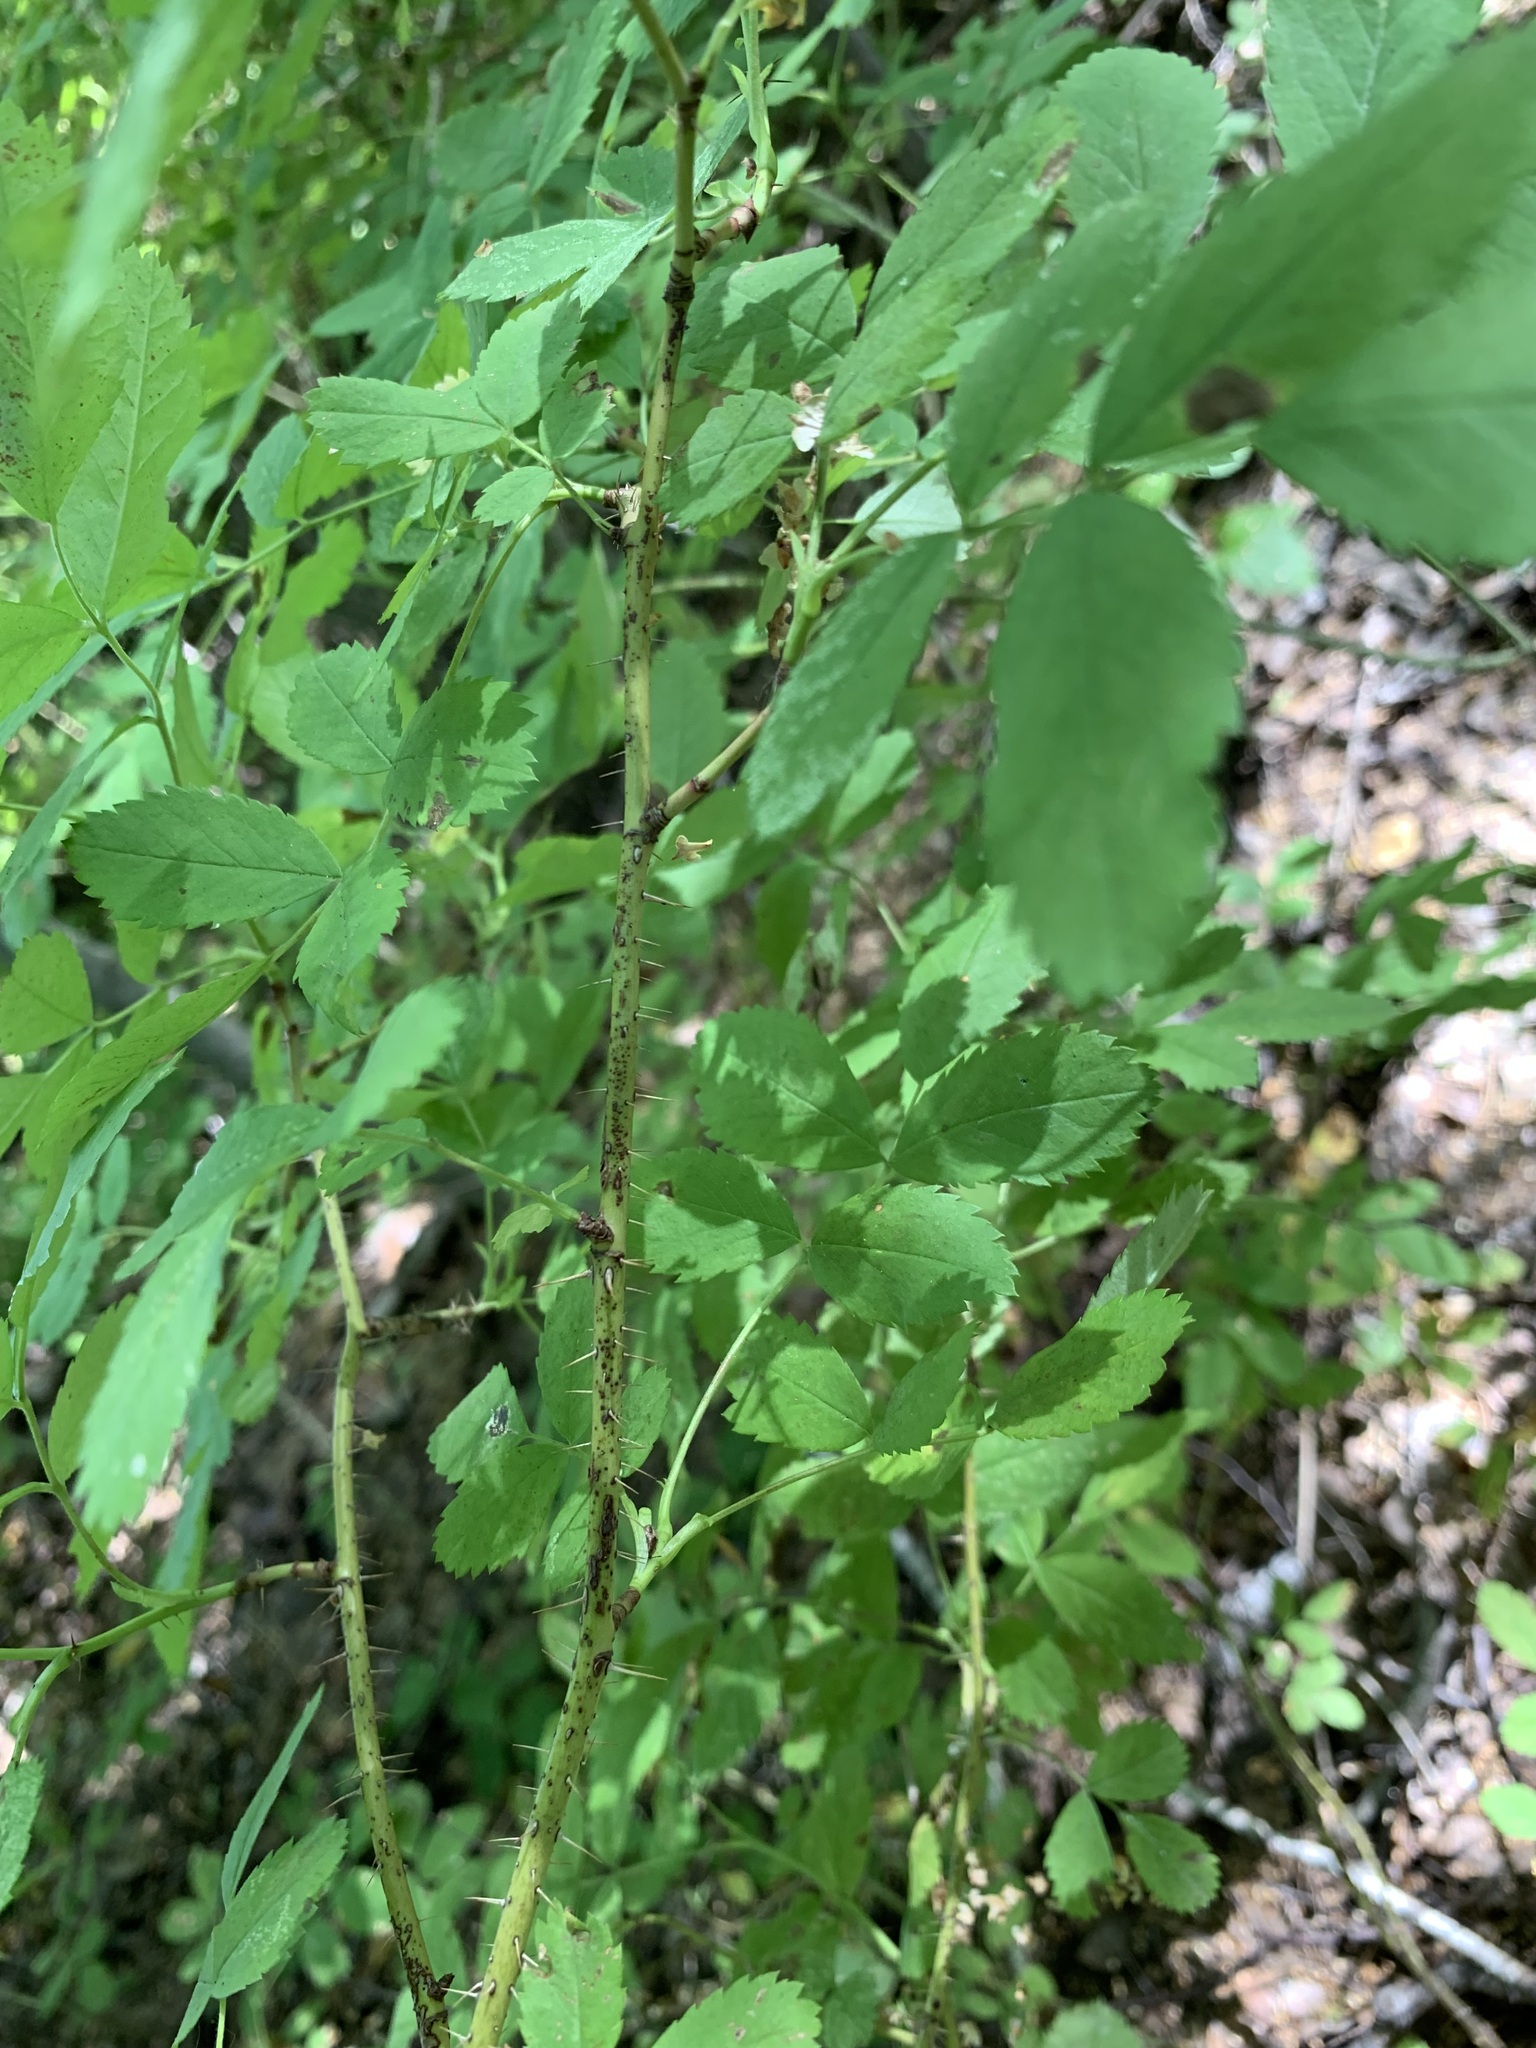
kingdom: Plantae
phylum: Tracheophyta
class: Magnoliopsida
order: Rosales
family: Rosaceae
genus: Rosa
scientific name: Rosa acicularis
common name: Prickly rose
